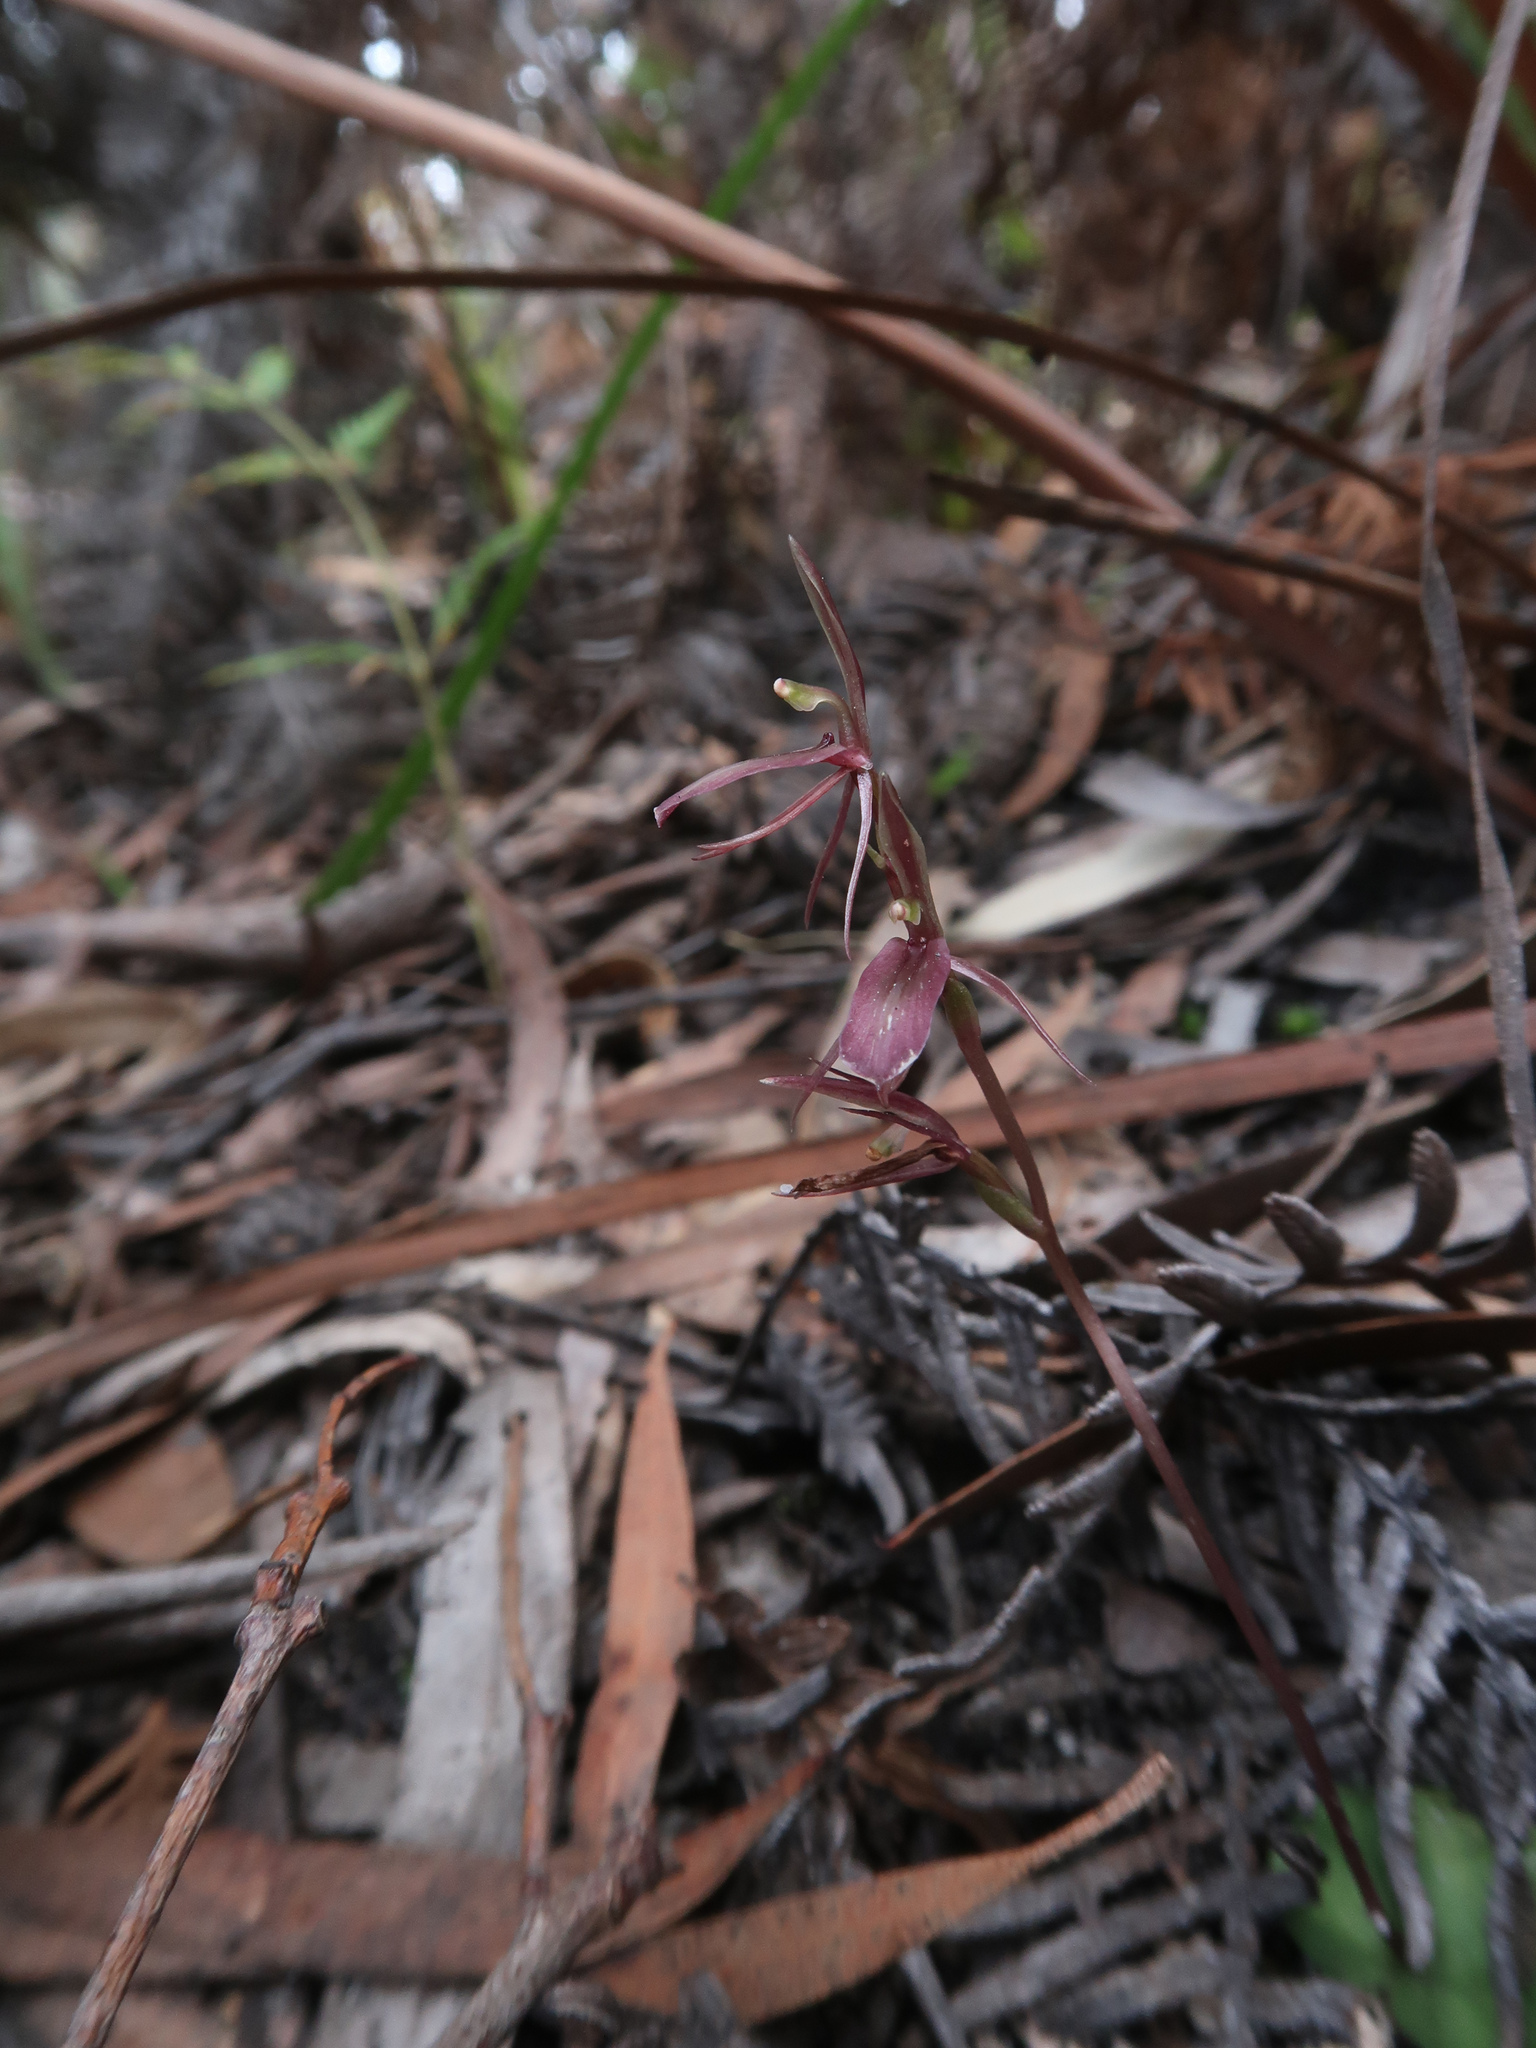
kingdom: Plantae
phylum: Tracheophyta
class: Liliopsida
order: Asparagales
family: Orchidaceae
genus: Cyrtostylis
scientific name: Cyrtostylis reniformis
